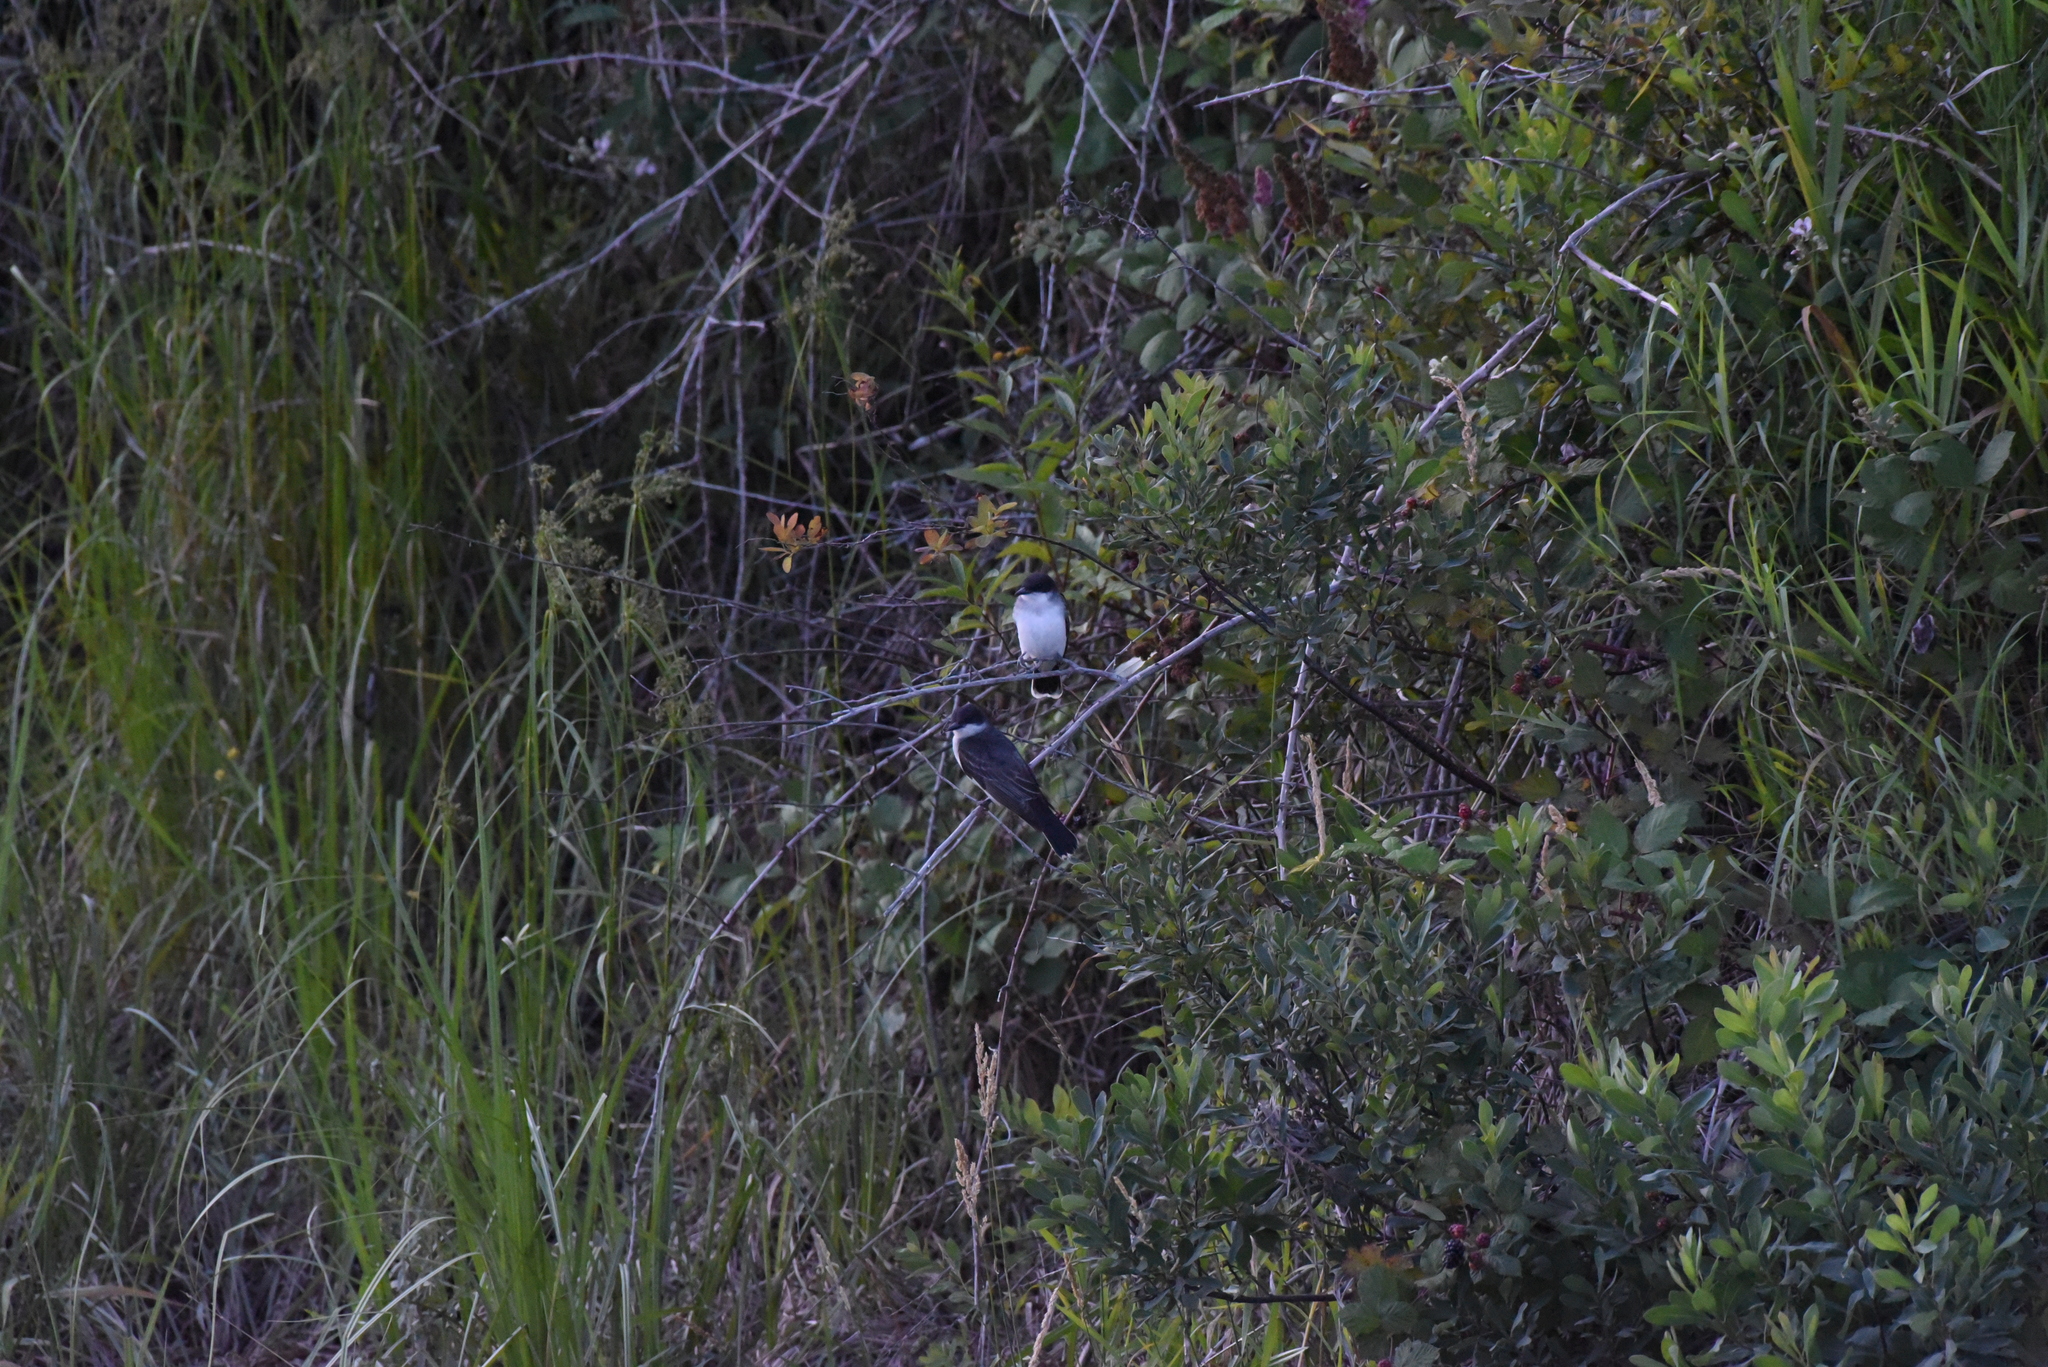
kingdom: Animalia
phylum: Chordata
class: Aves
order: Passeriformes
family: Tyrannidae
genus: Tyrannus
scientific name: Tyrannus tyrannus
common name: Eastern kingbird
